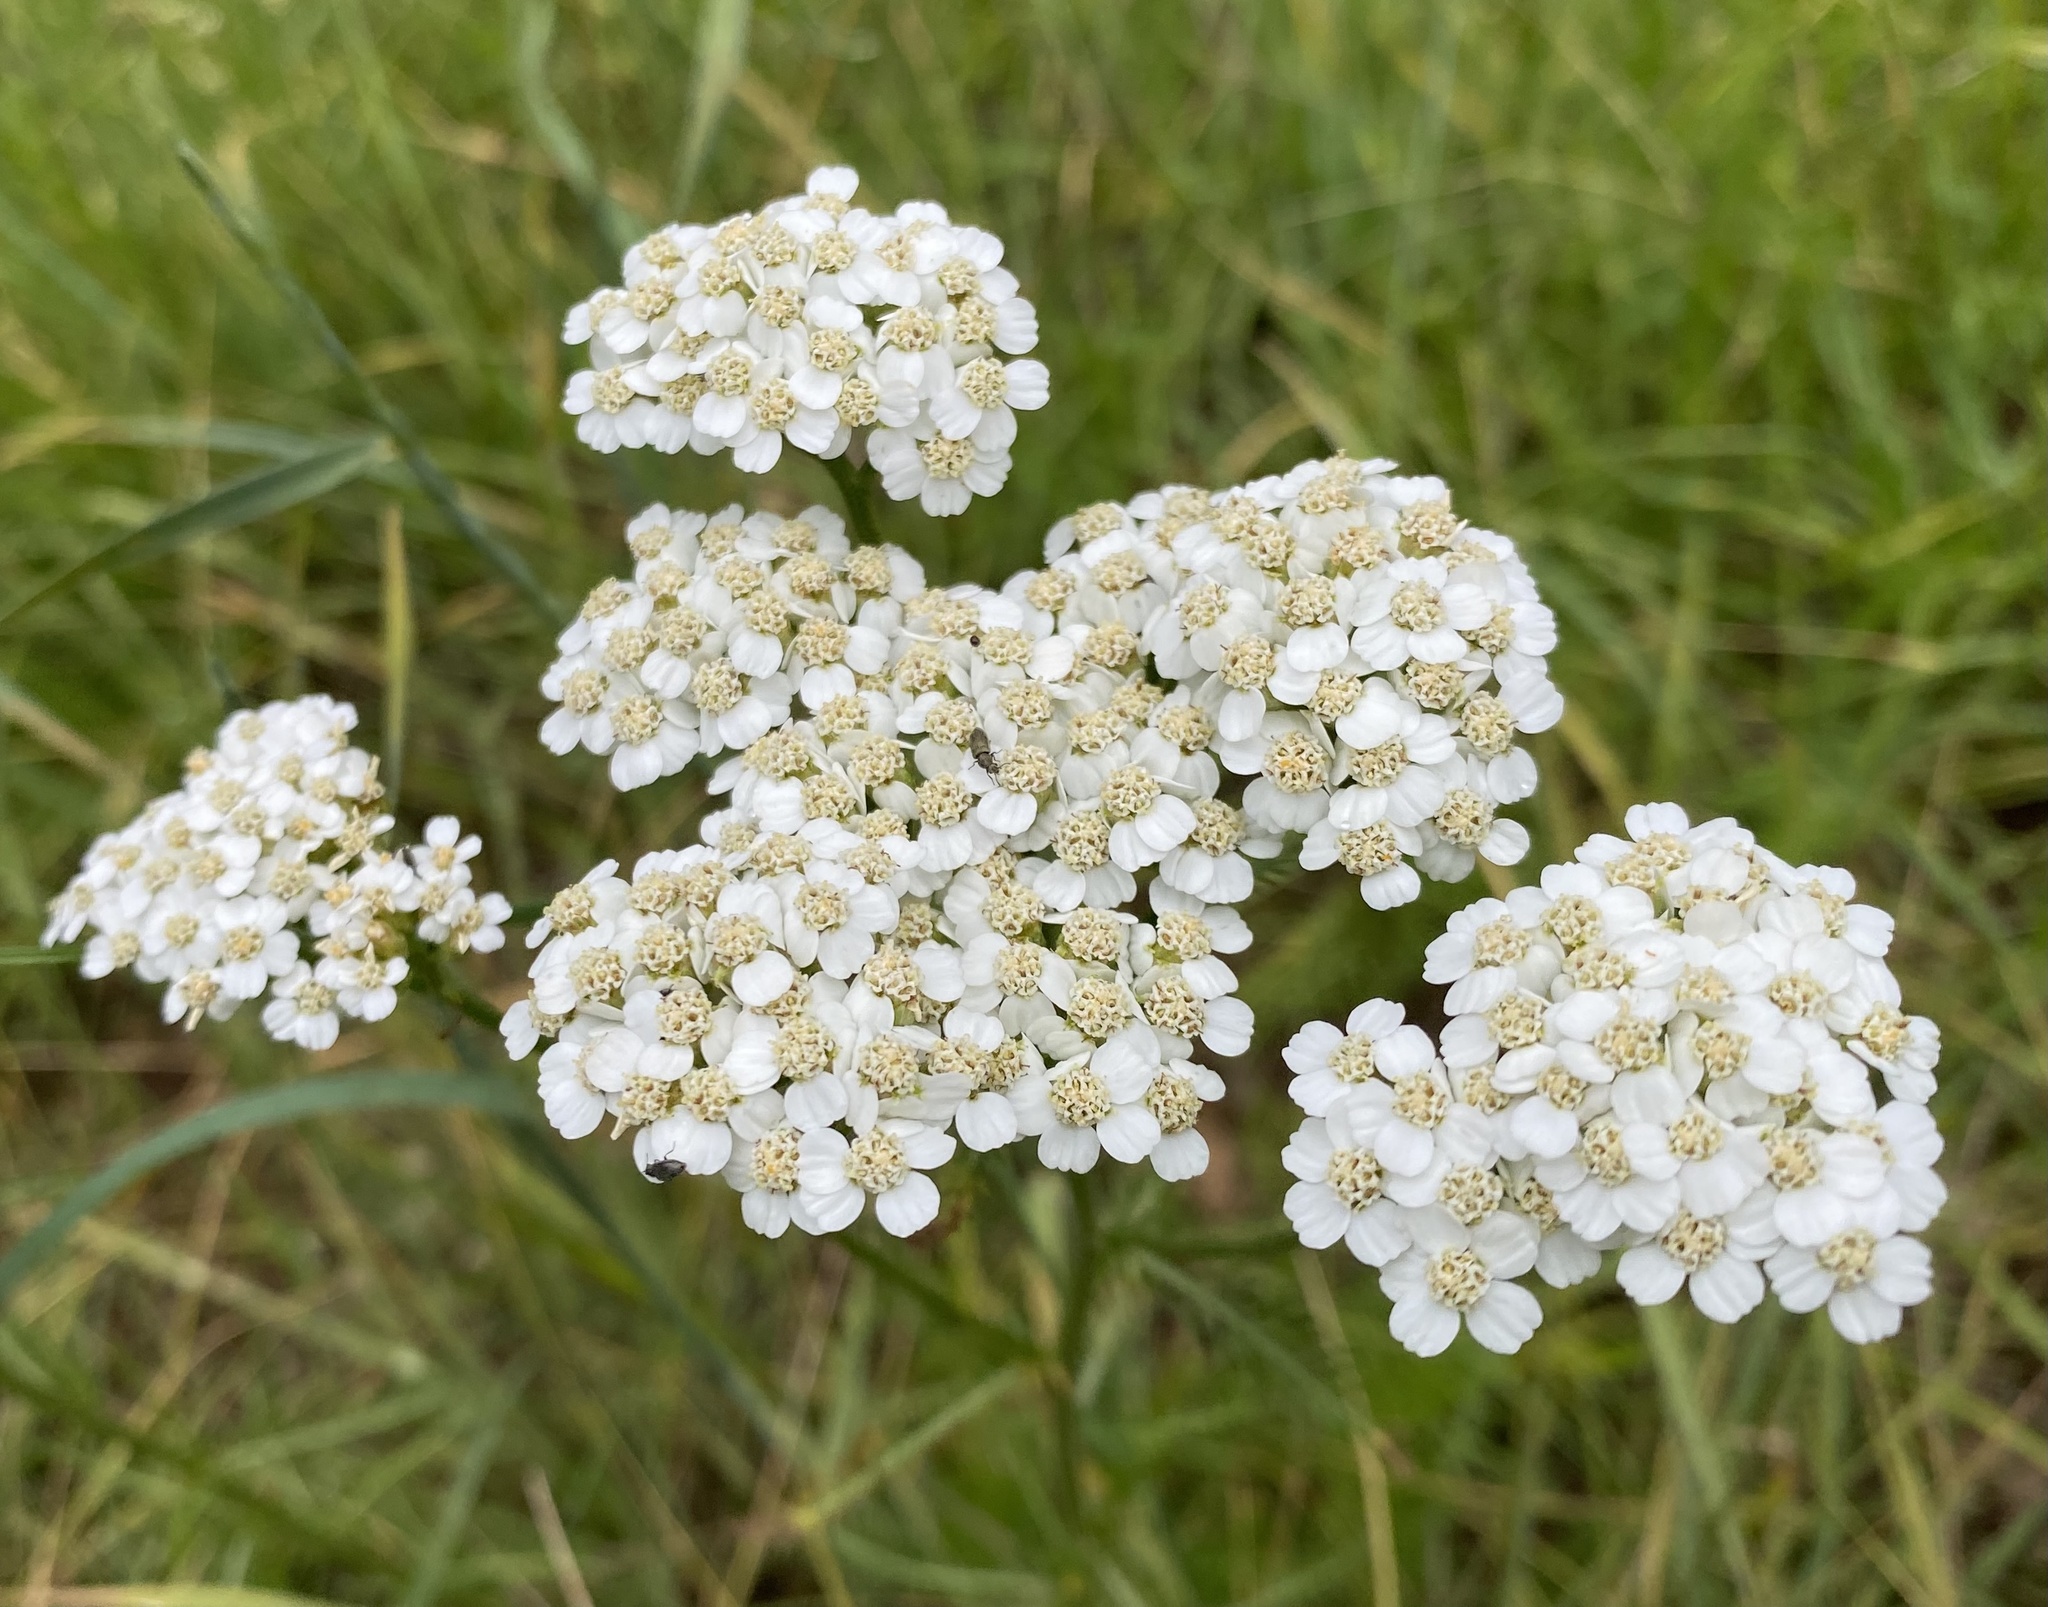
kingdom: Plantae
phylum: Tracheophyta
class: Magnoliopsida
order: Asterales
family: Asteraceae
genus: Achillea
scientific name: Achillea millefolium
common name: Yarrow
